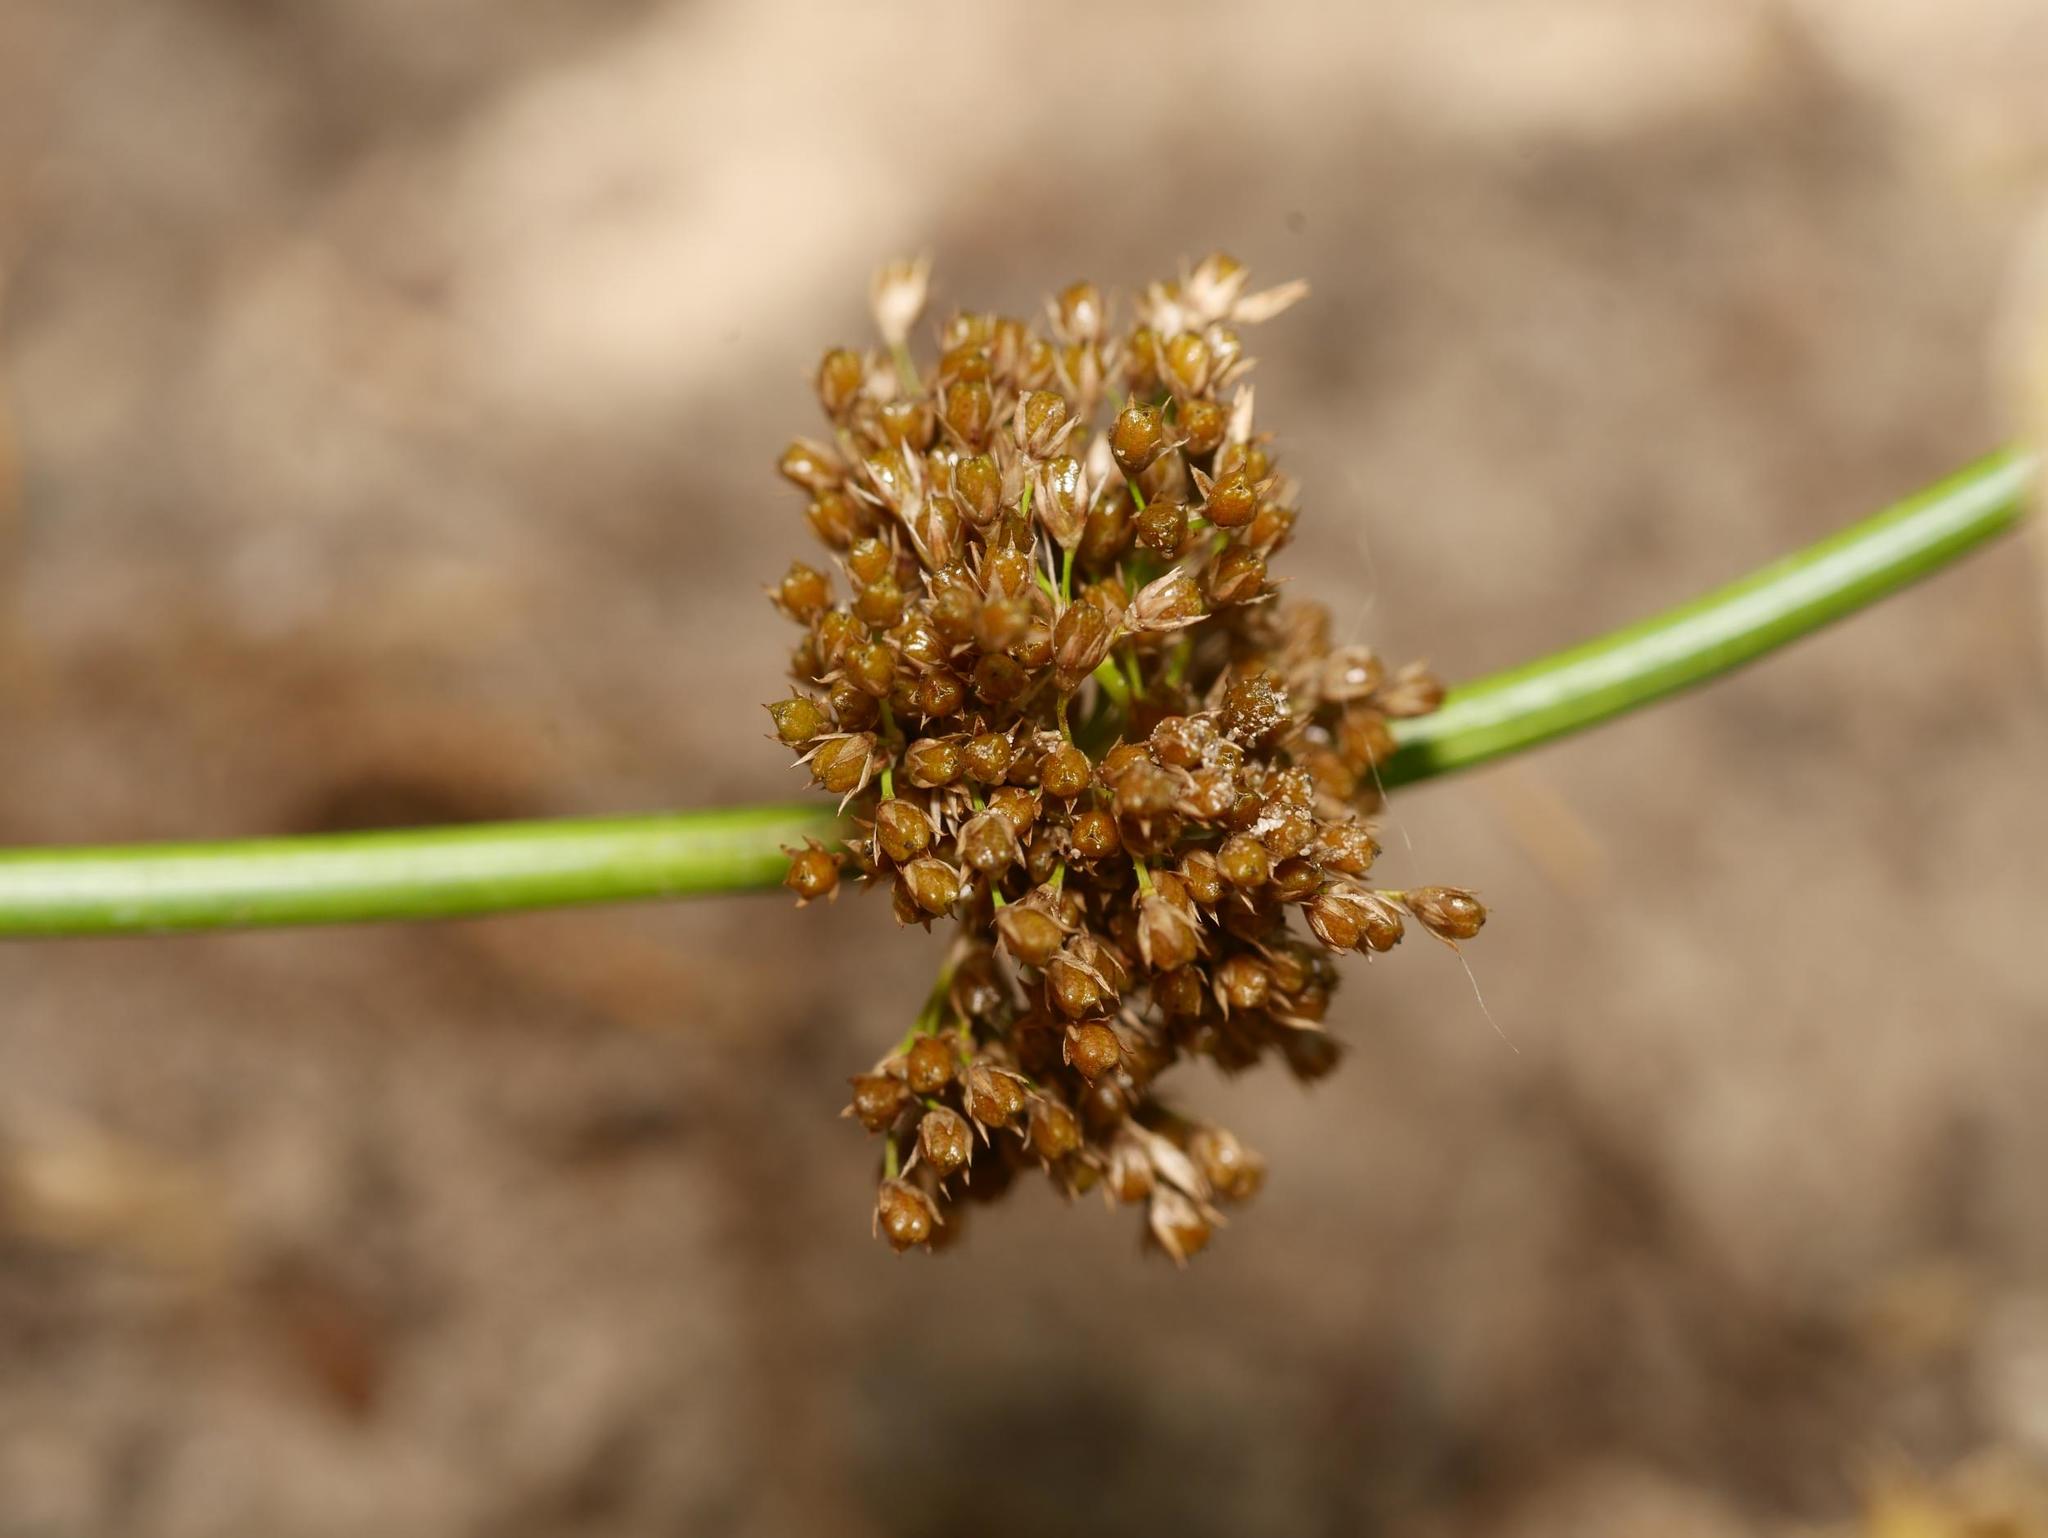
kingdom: Plantae
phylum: Tracheophyta
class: Liliopsida
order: Poales
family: Juncaceae
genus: Juncus
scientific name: Juncus effusus
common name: Soft rush
